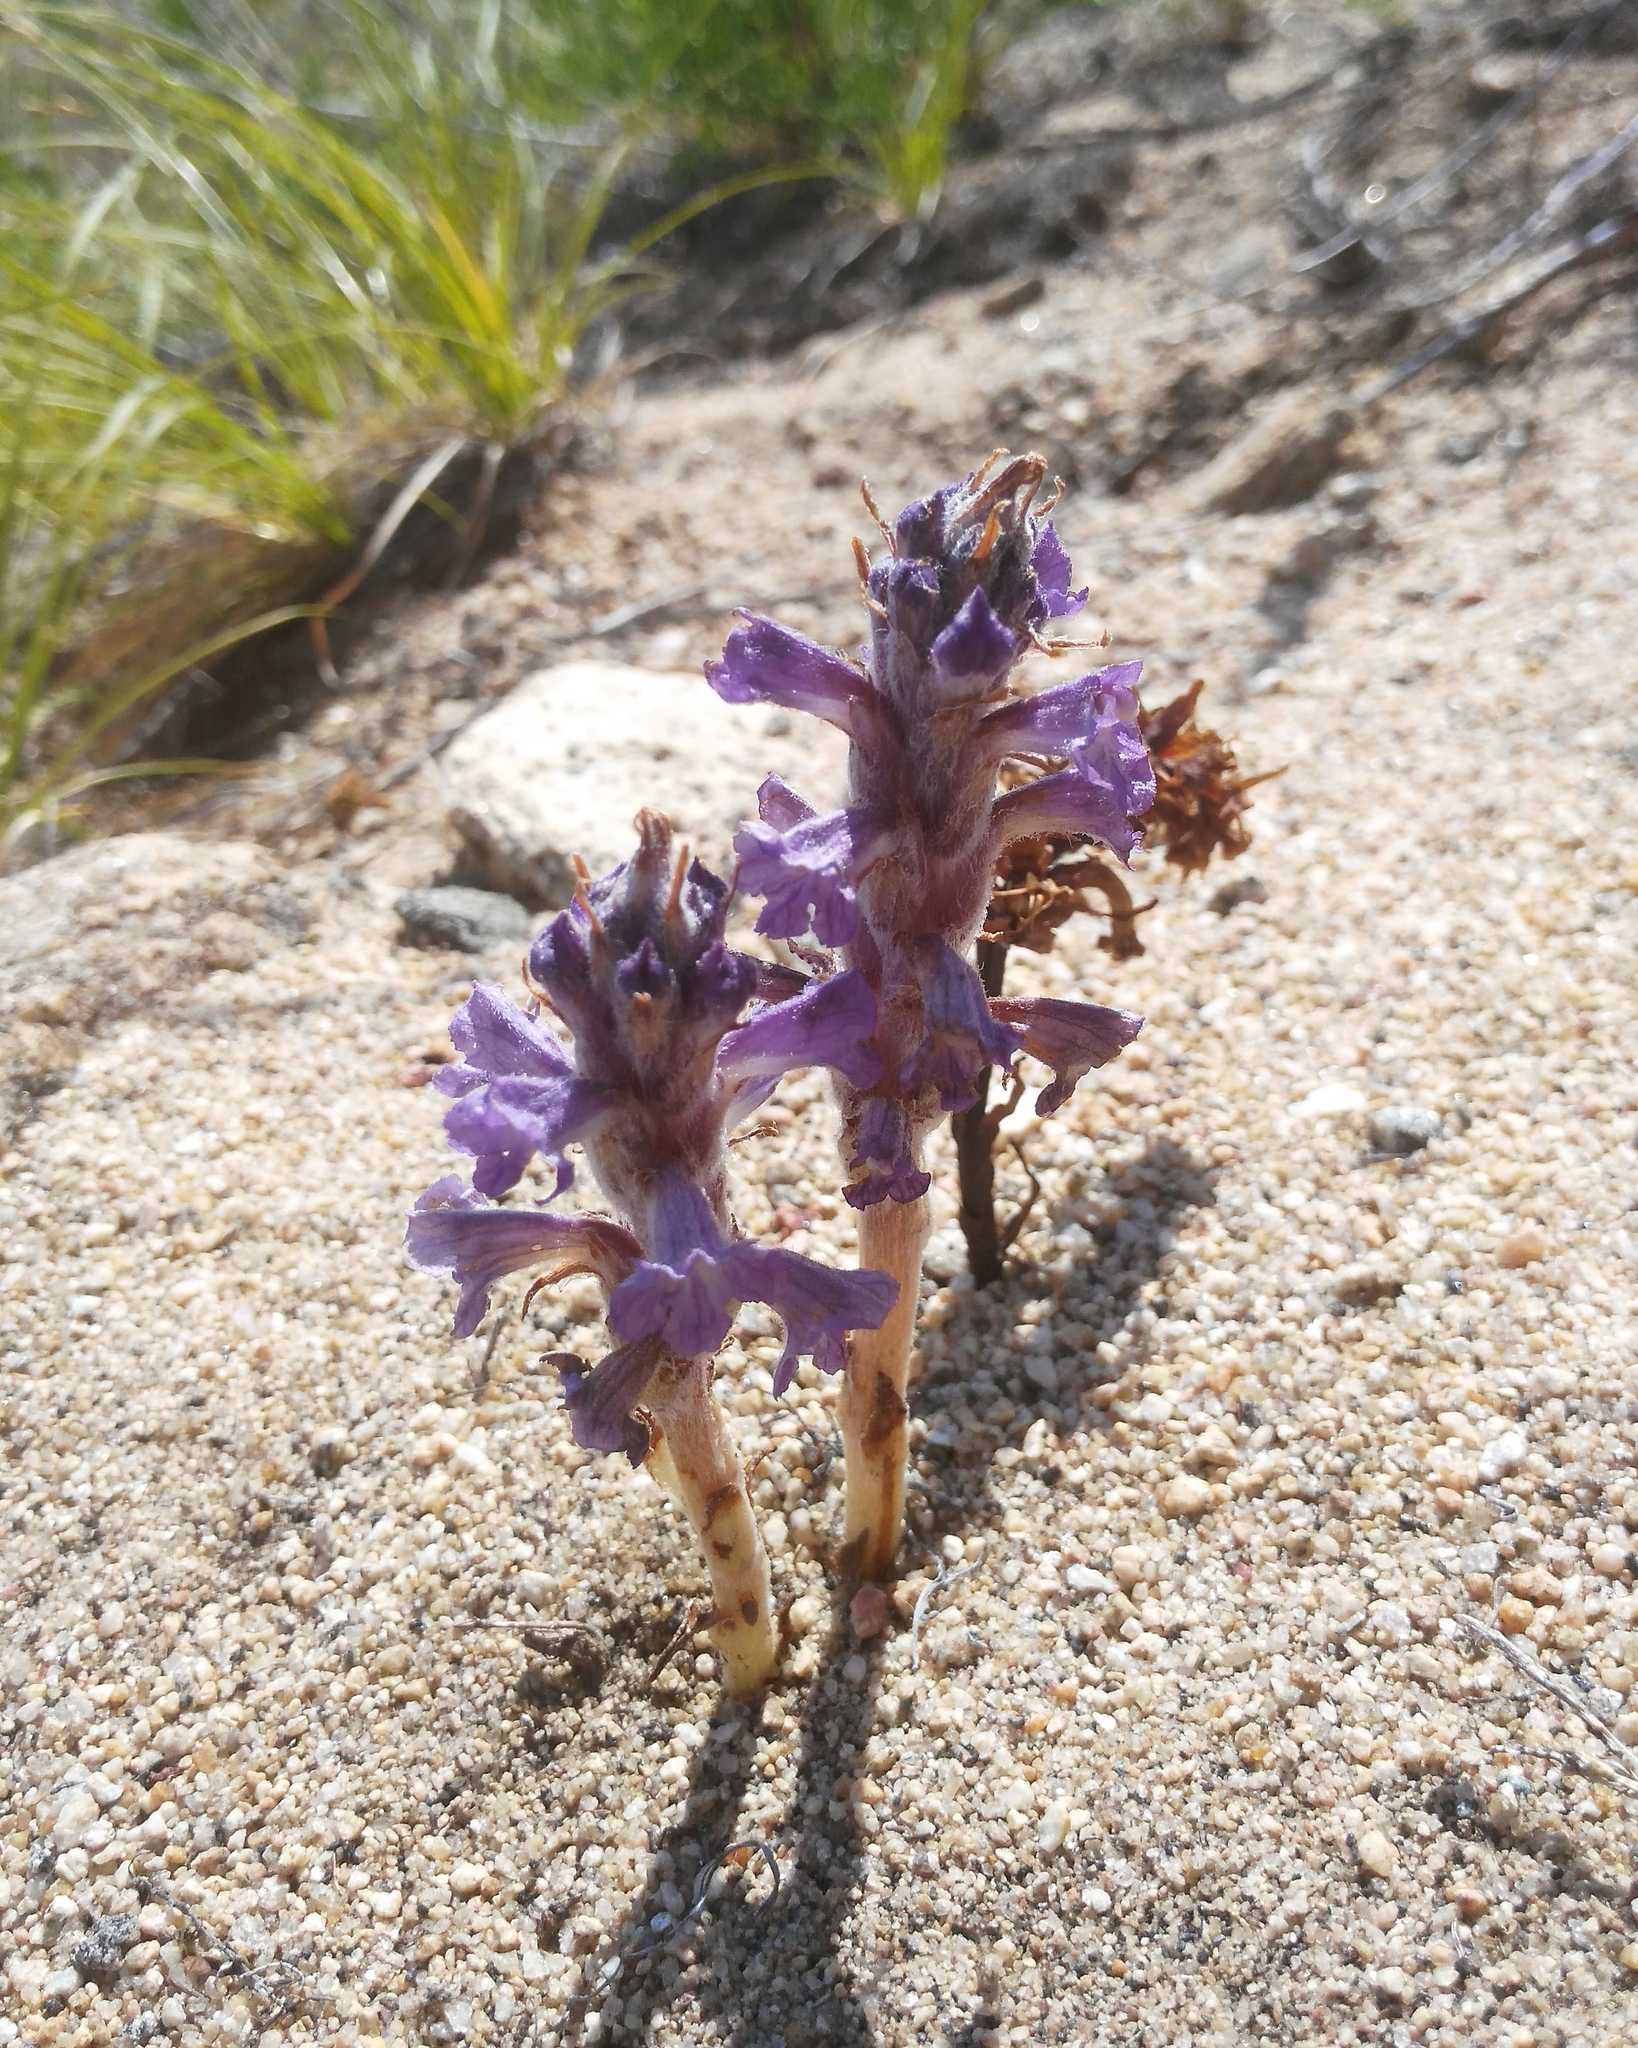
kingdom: Plantae
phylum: Tracheophyta
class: Magnoliopsida
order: Lamiales
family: Orobanchaceae
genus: Orobanche
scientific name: Orobanche coerulescens
